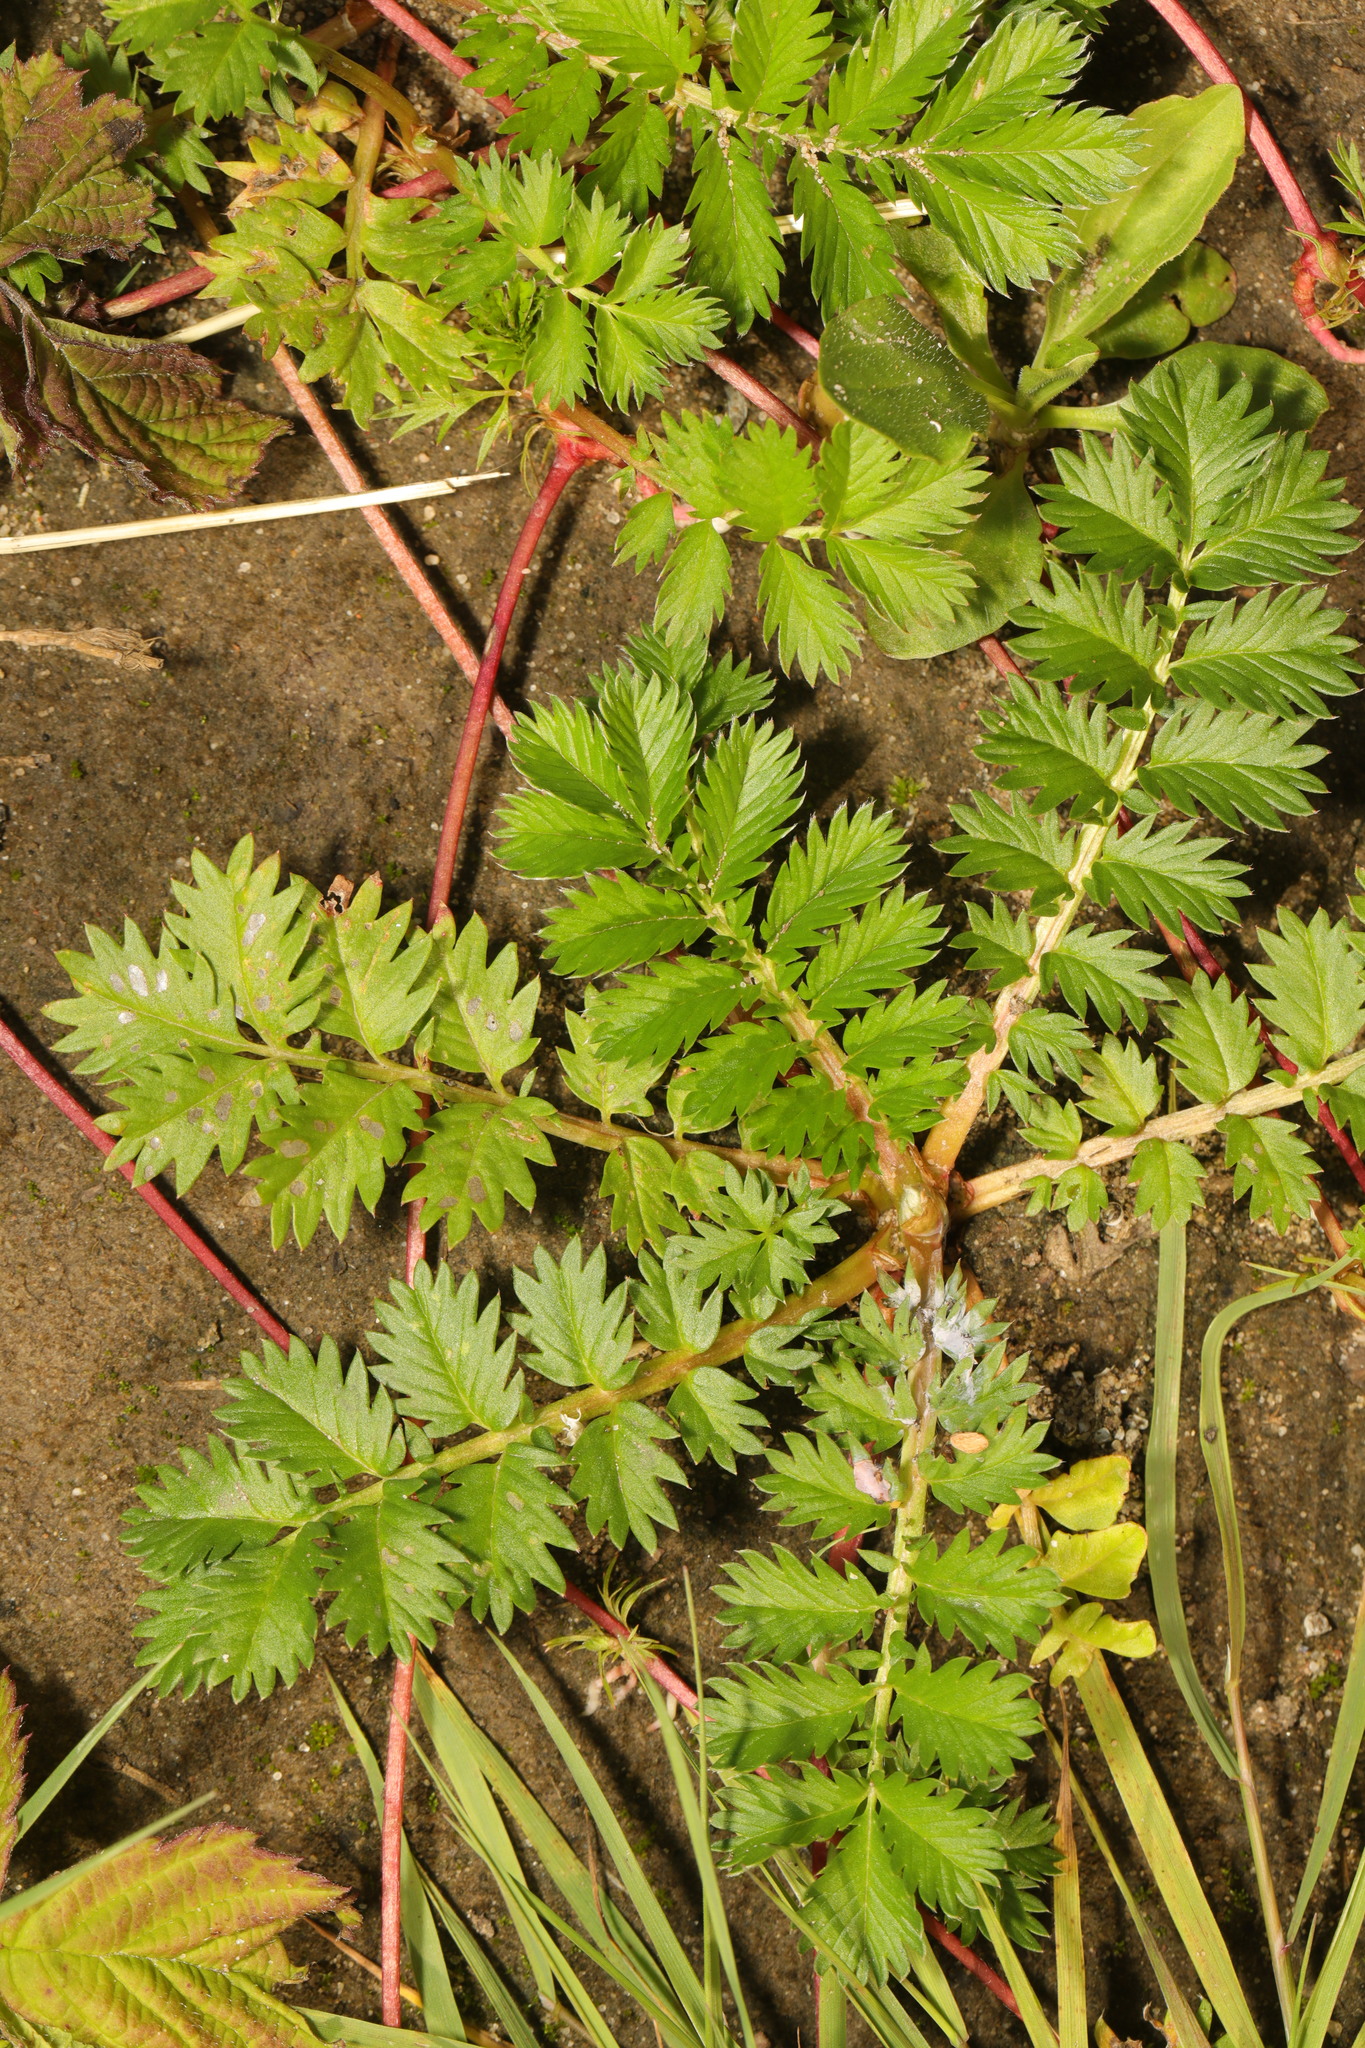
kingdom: Plantae
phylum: Tracheophyta
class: Magnoliopsida
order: Rosales
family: Rosaceae
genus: Argentina
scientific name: Argentina anserina
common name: Common silverweed
